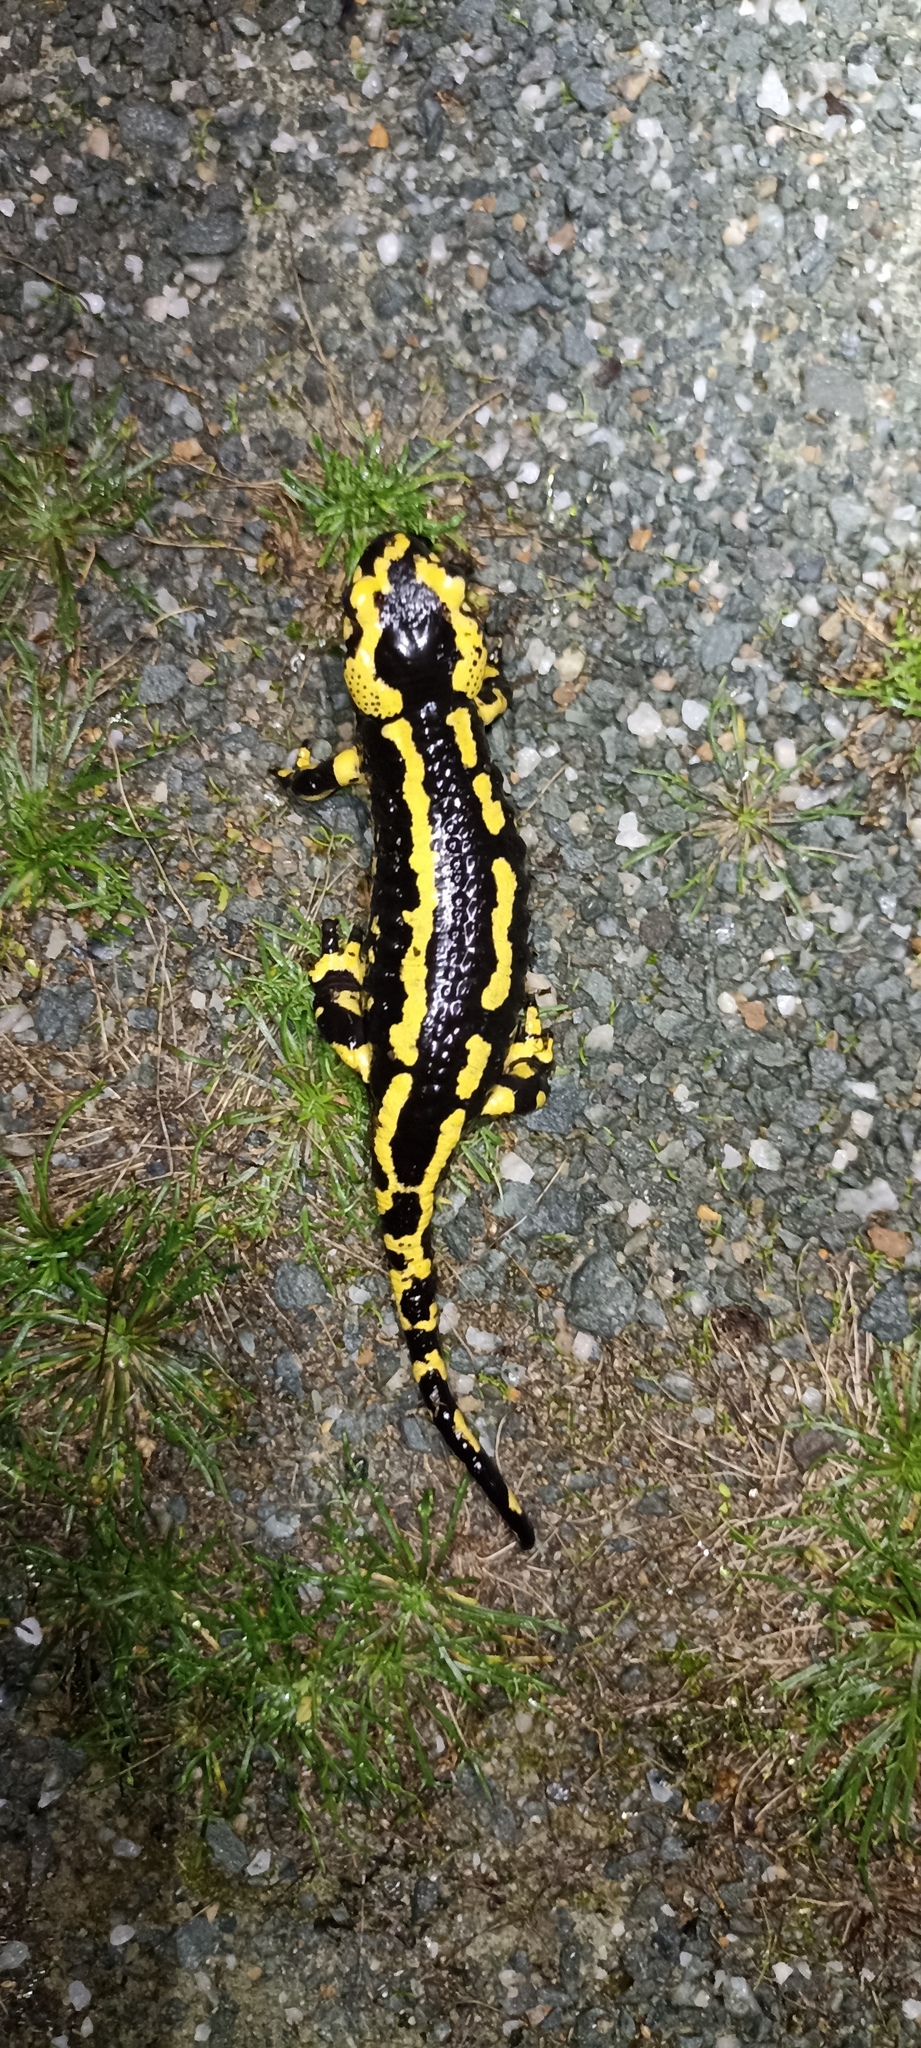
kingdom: Animalia
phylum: Chordata
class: Amphibia
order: Caudata
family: Salamandridae
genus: Salamandra
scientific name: Salamandra salamandra
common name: Fire salamander
